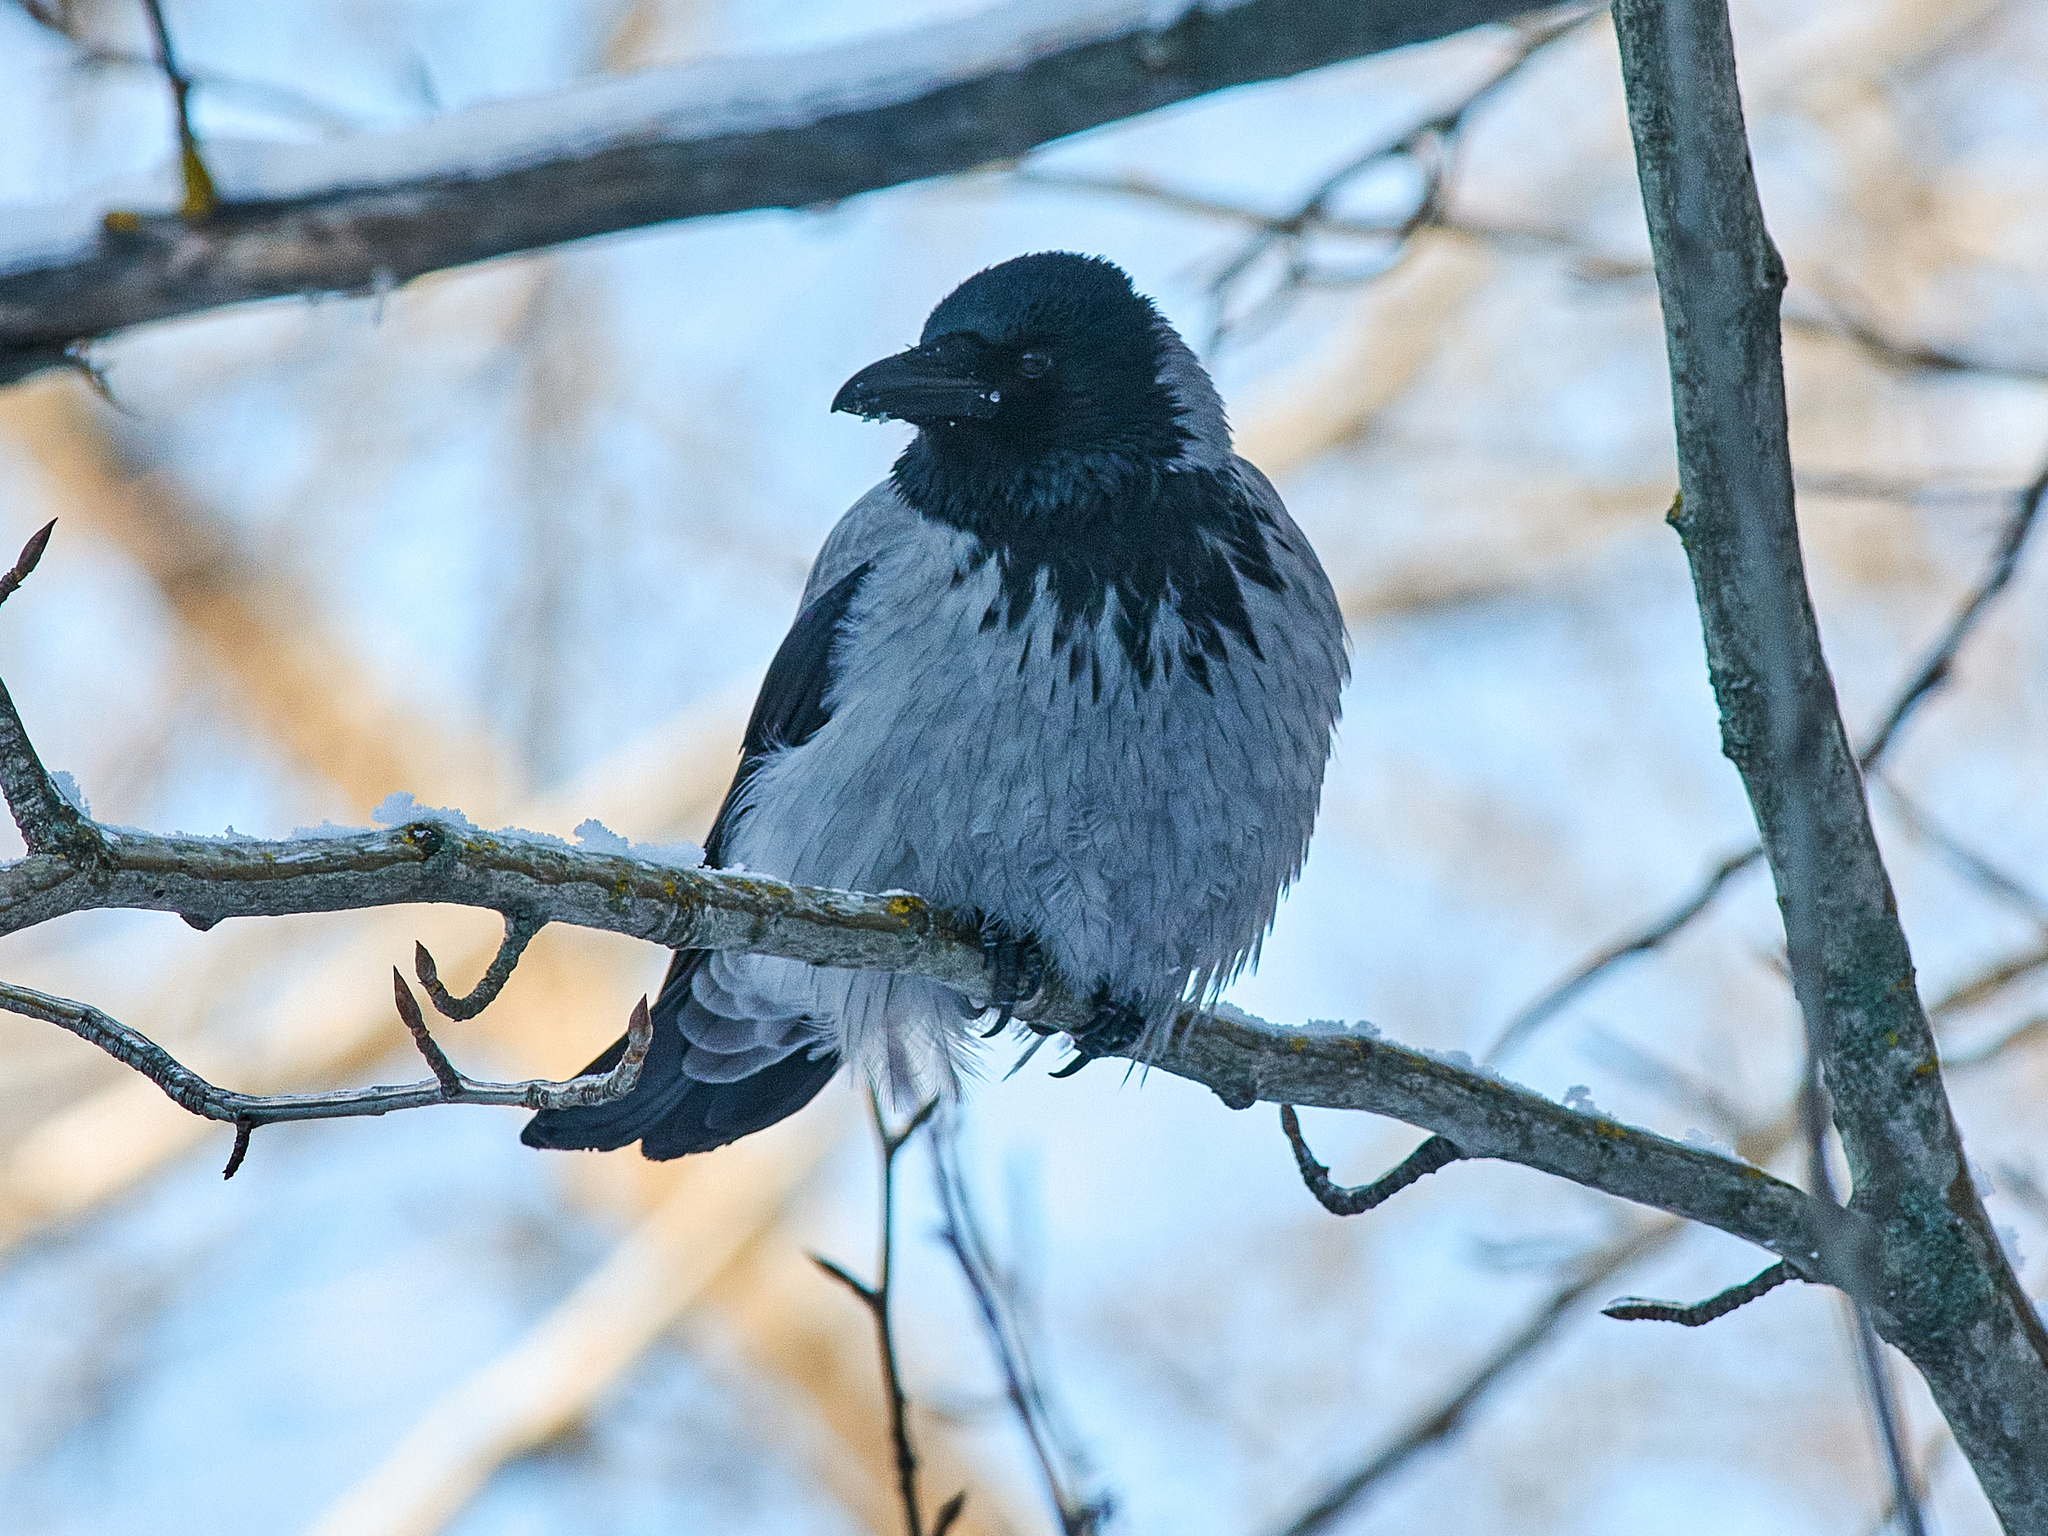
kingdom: Animalia
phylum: Chordata
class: Aves
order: Passeriformes
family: Corvidae
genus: Corvus
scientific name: Corvus cornix
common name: Hooded crow
